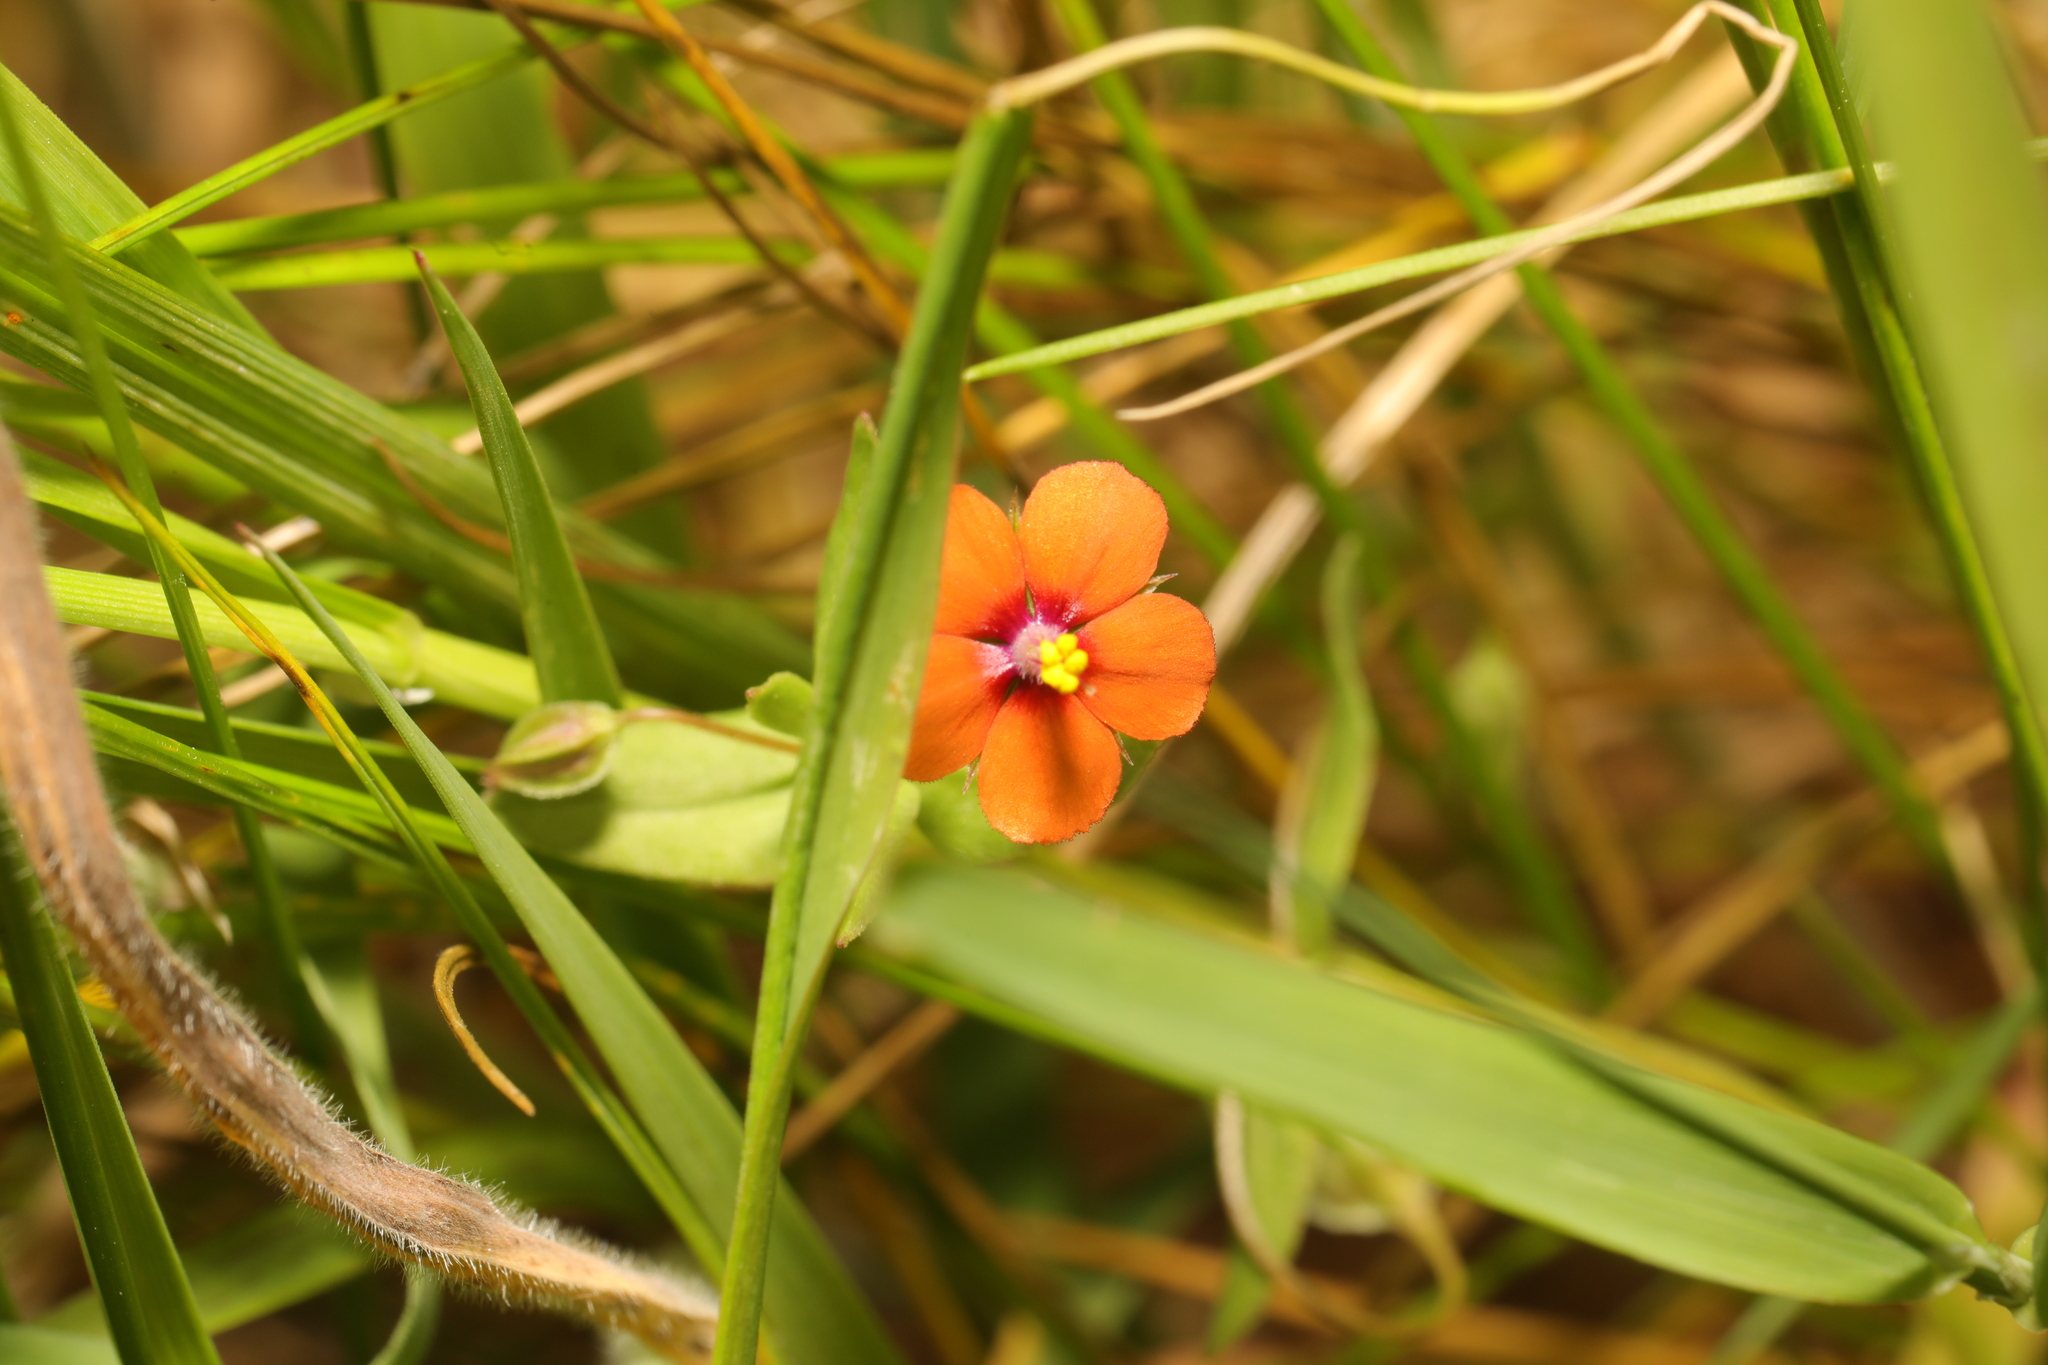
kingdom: Plantae
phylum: Tracheophyta
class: Magnoliopsida
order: Ericales
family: Primulaceae
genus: Lysimachia
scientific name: Lysimachia arvensis
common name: Scarlet pimpernel
